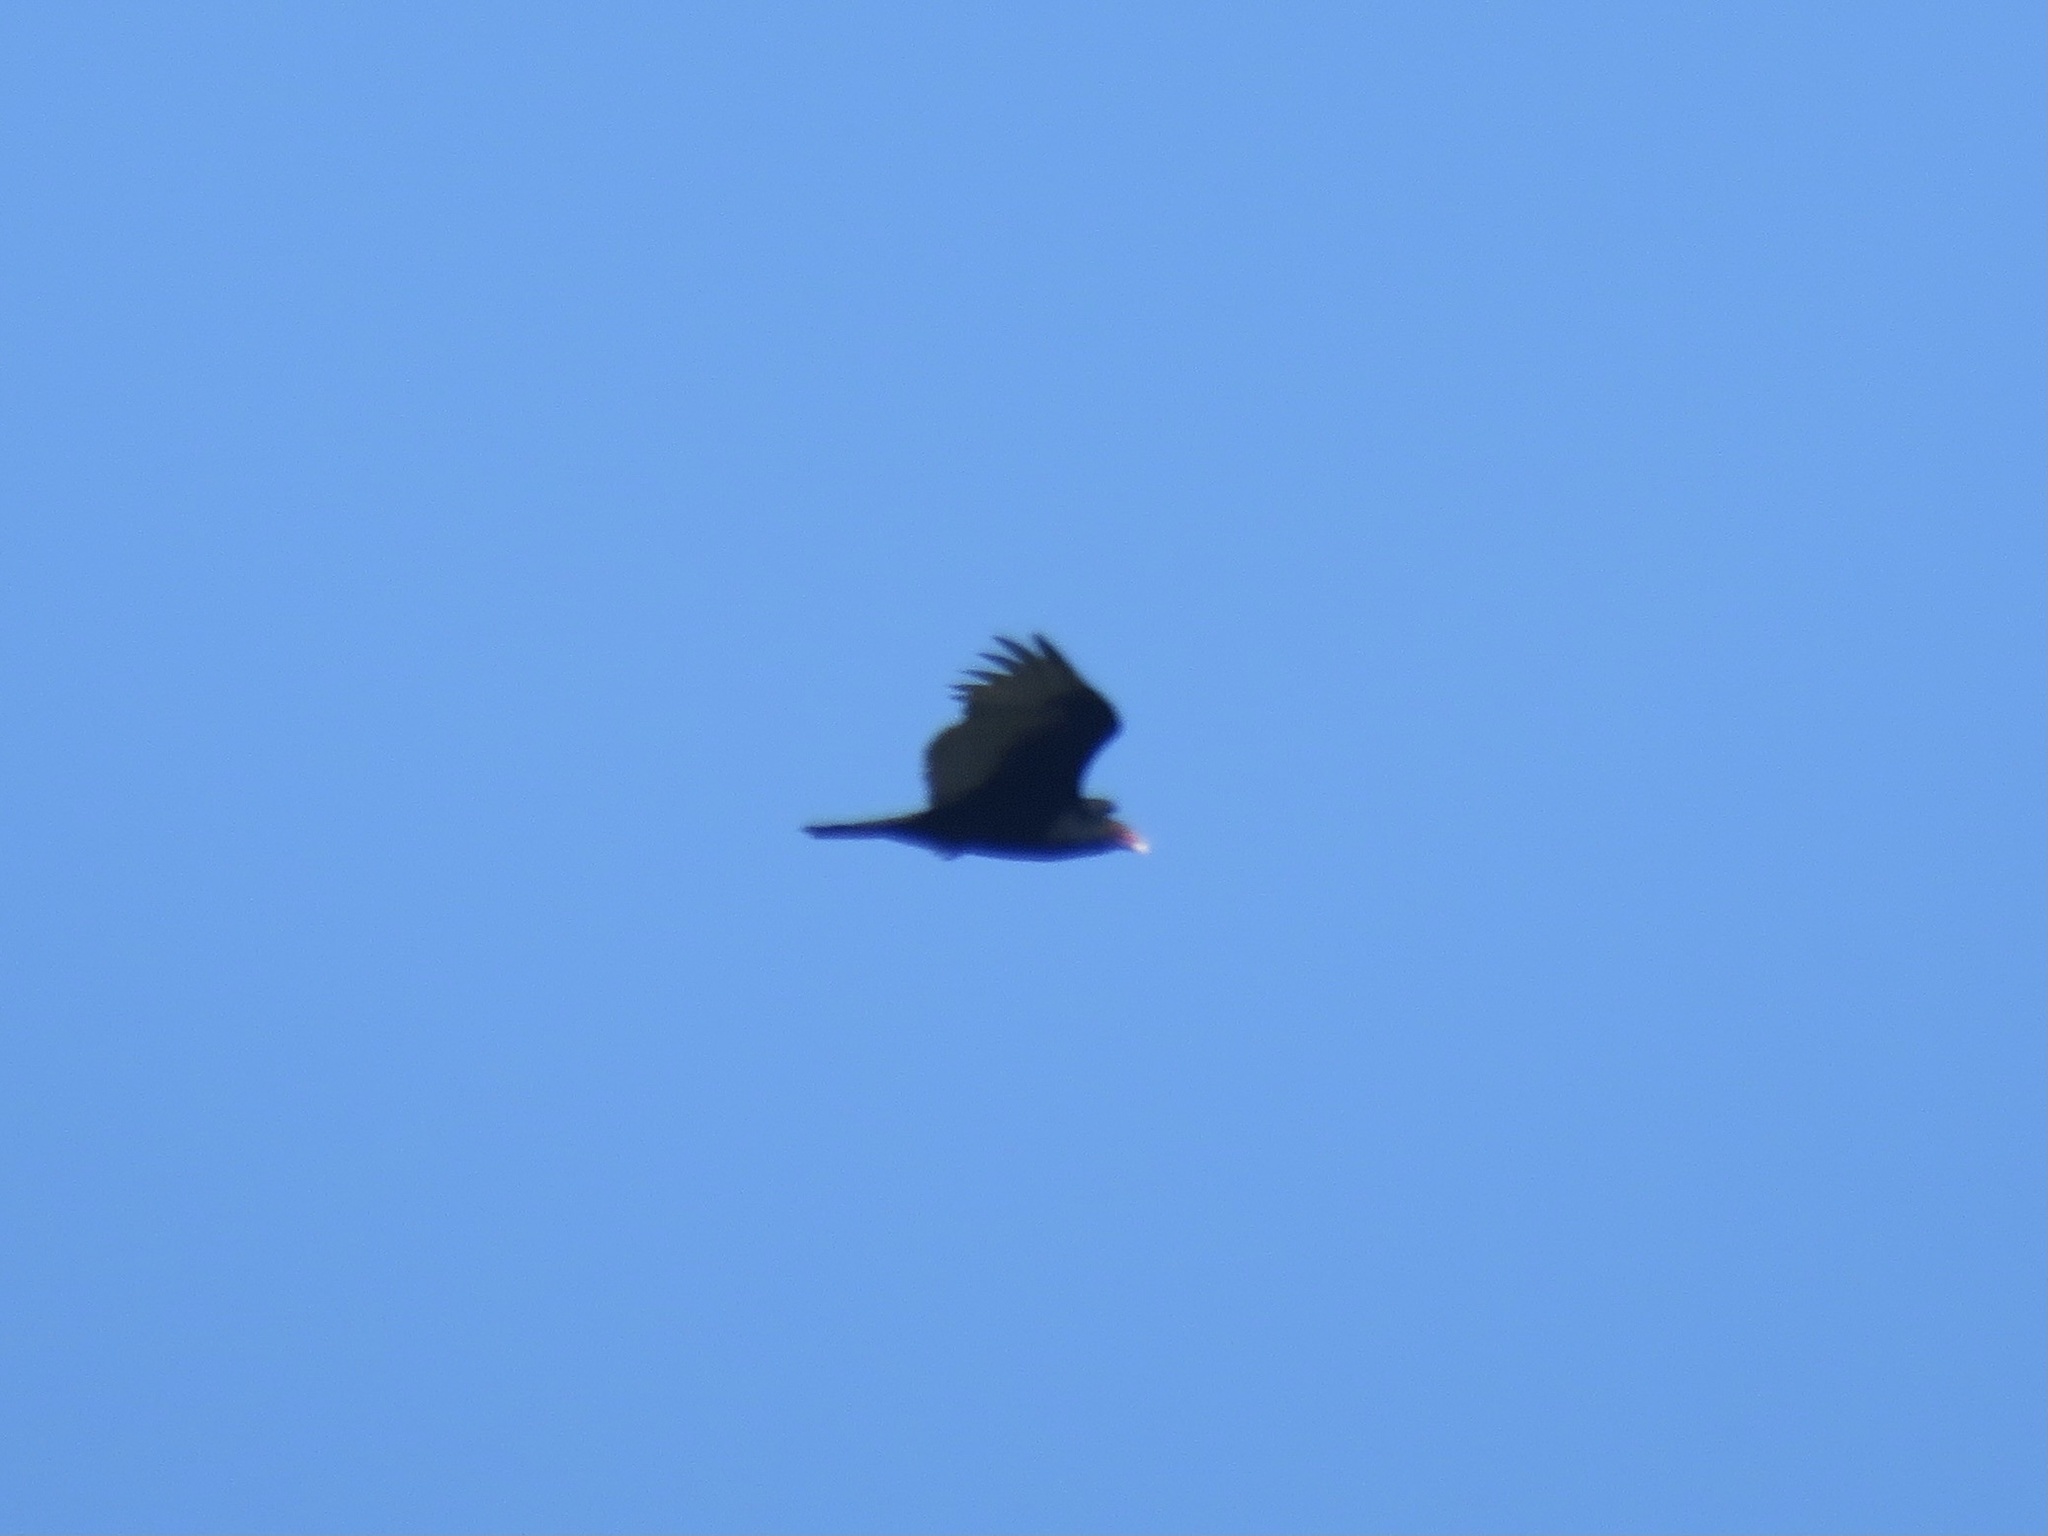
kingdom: Animalia
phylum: Chordata
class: Aves
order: Accipitriformes
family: Cathartidae
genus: Cathartes
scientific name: Cathartes aura
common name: Turkey vulture
